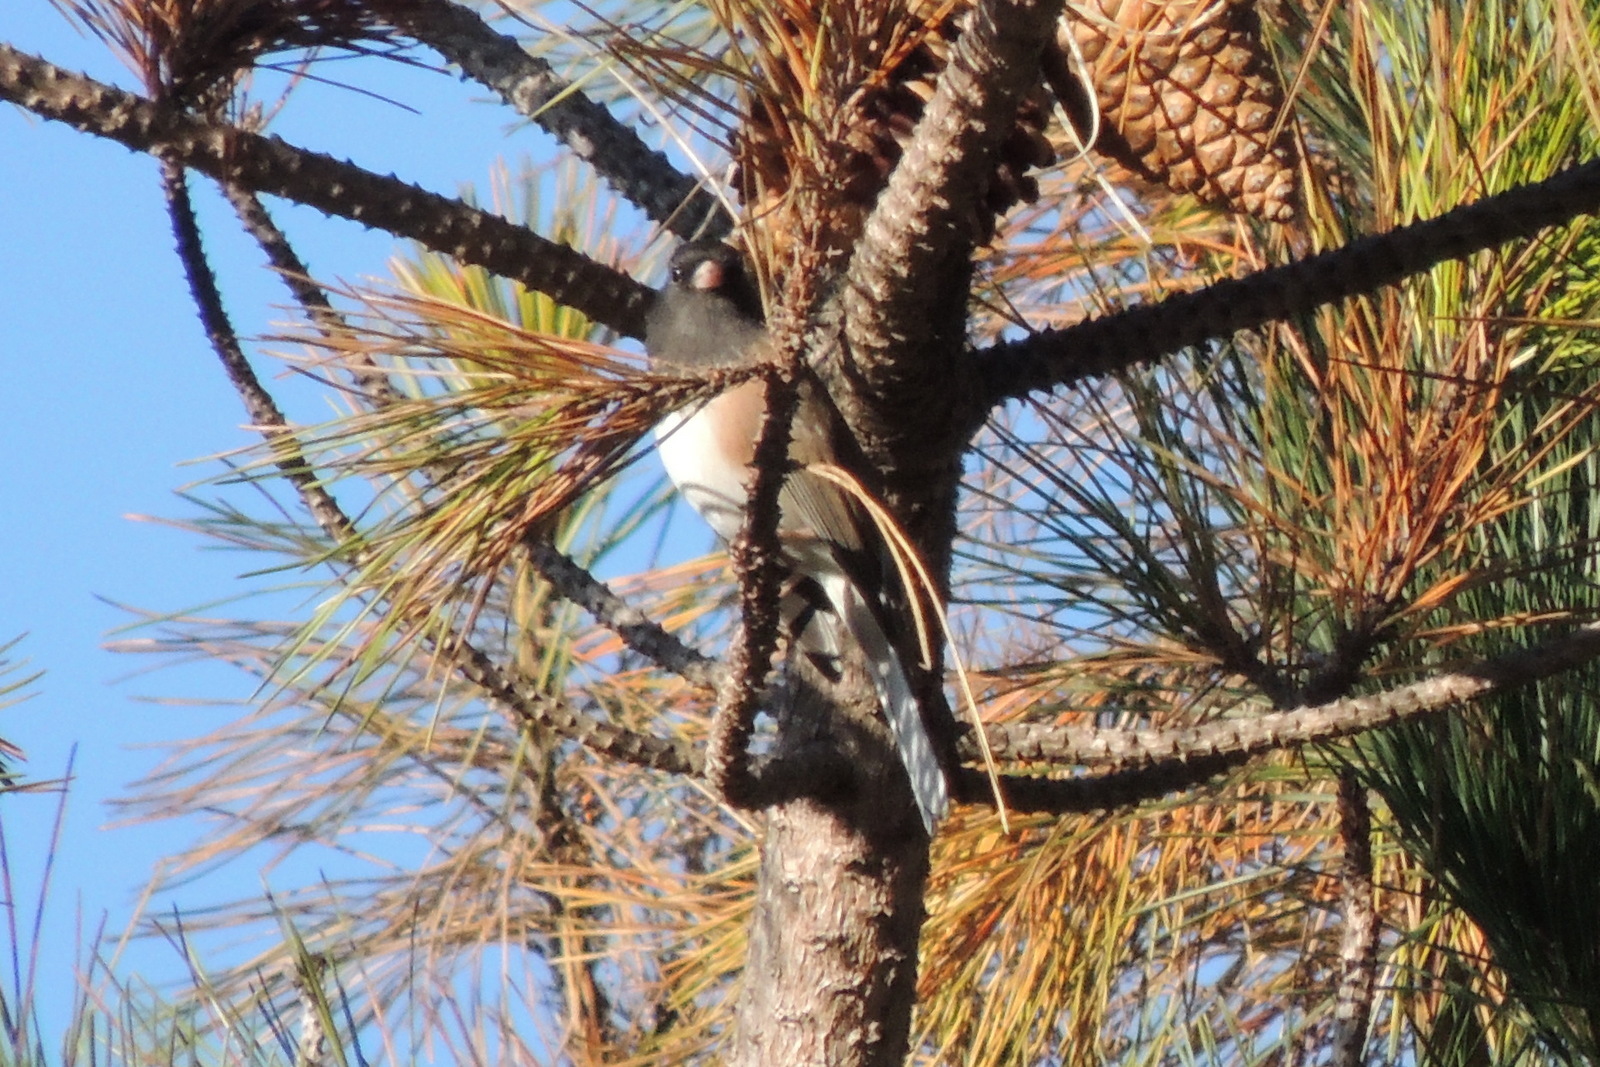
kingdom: Animalia
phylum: Chordata
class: Aves
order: Passeriformes
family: Passerellidae
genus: Junco
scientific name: Junco hyemalis
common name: Dark-eyed junco
